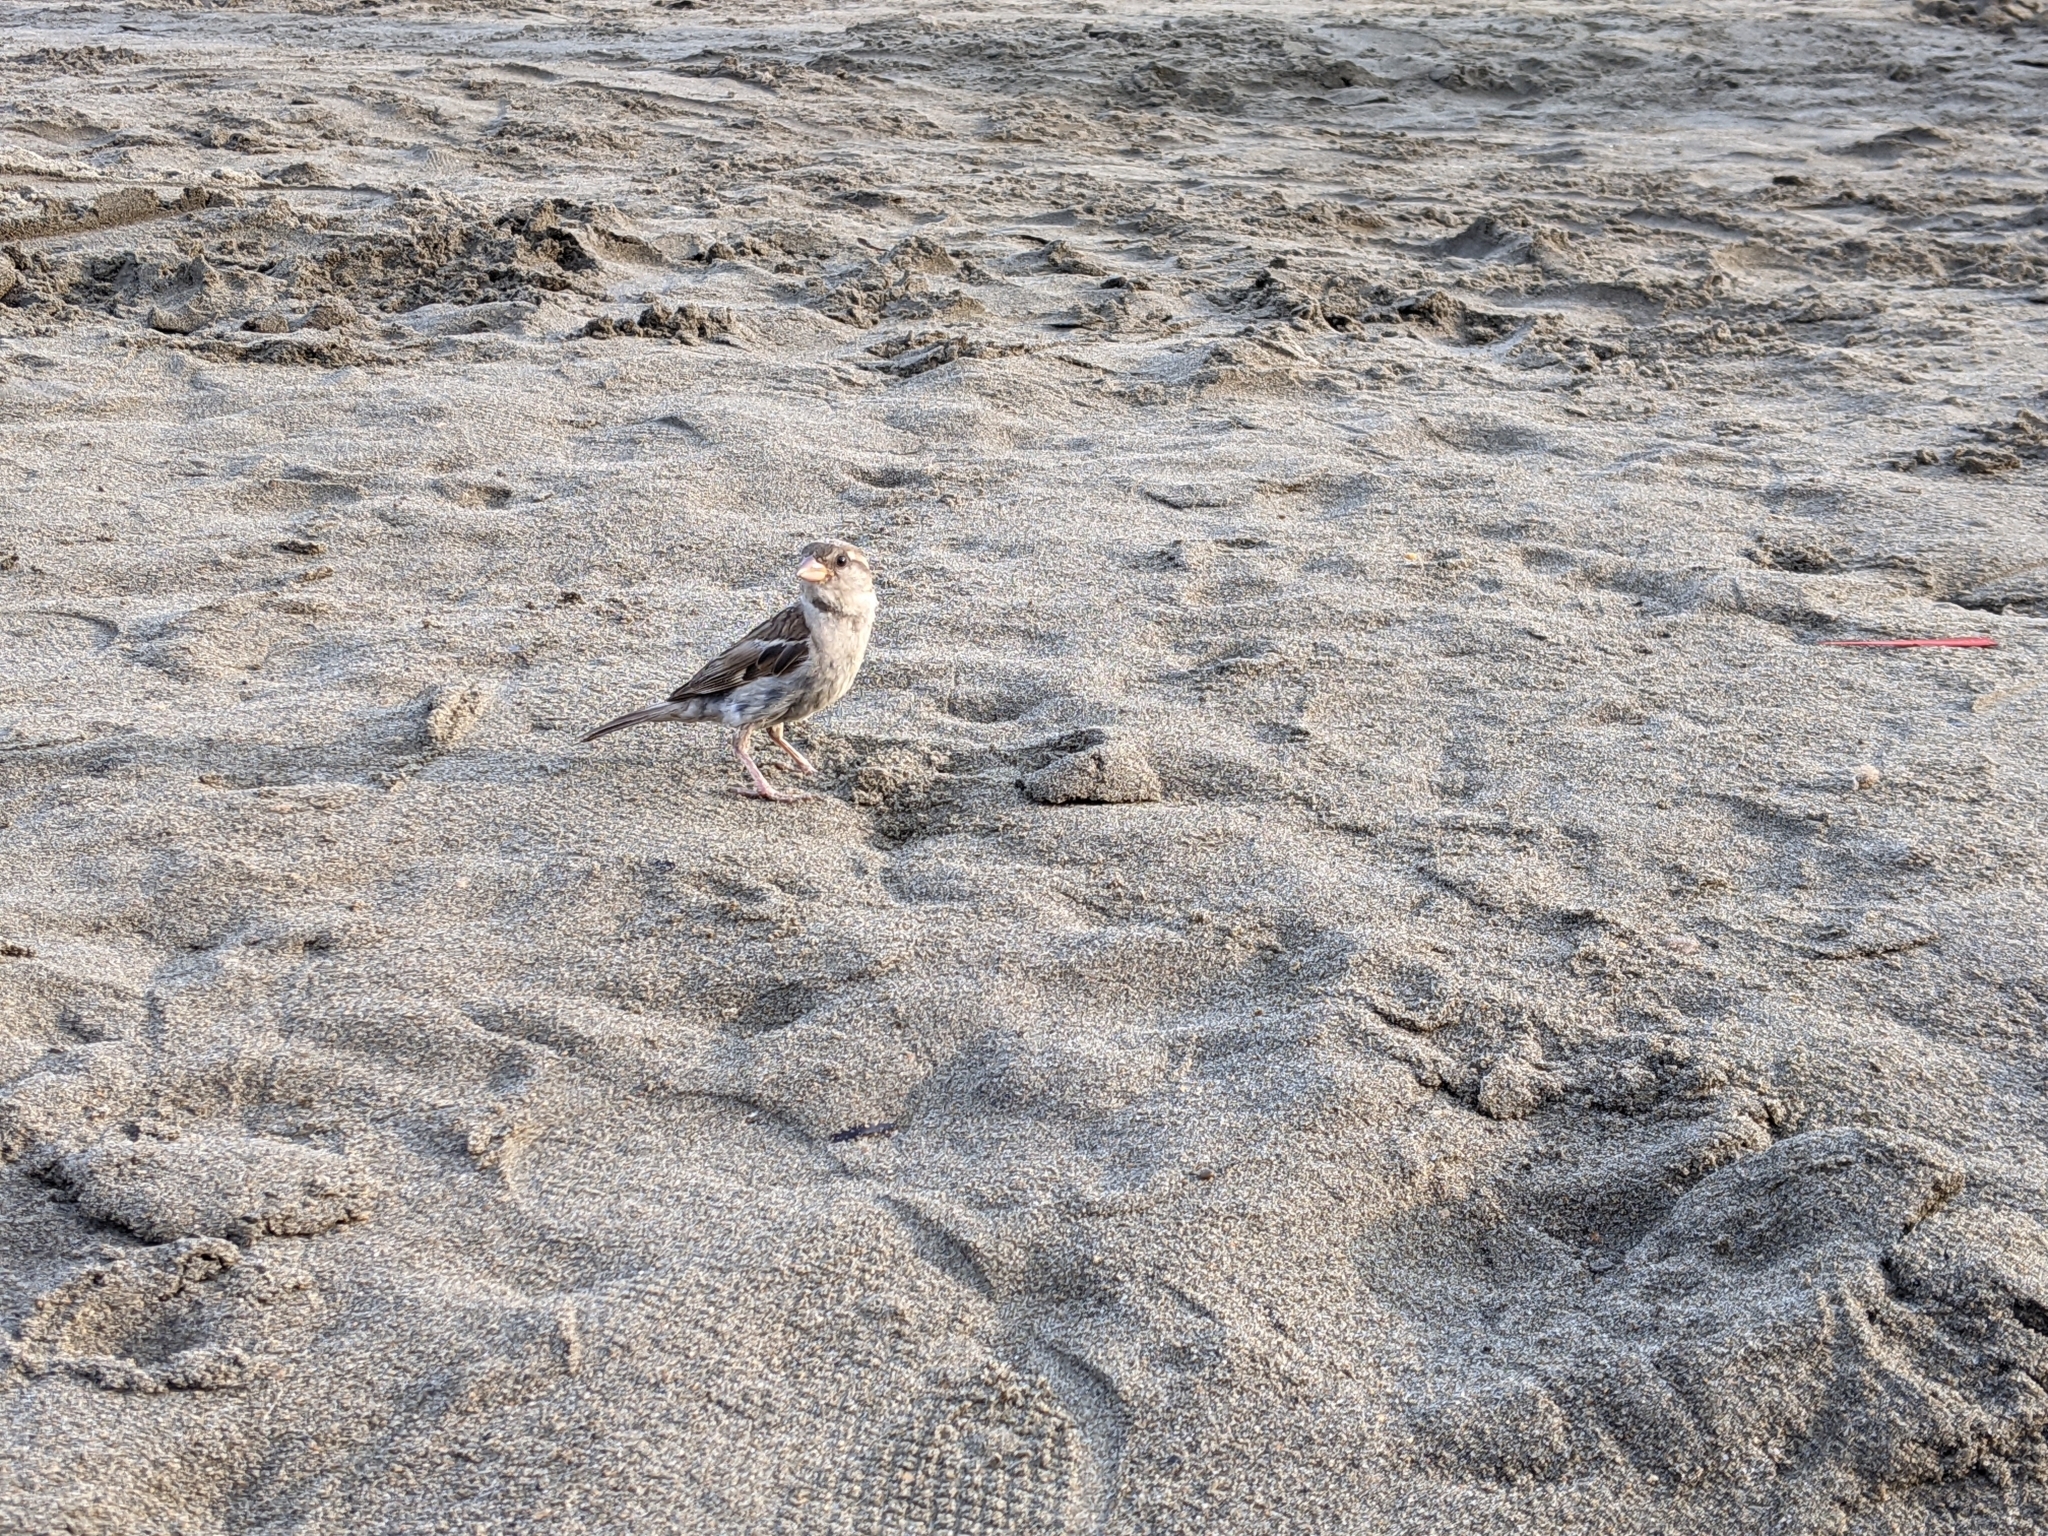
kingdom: Animalia
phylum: Chordata
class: Aves
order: Passeriformes
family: Passeridae
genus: Passer
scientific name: Passer italiae
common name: Italian sparrow
